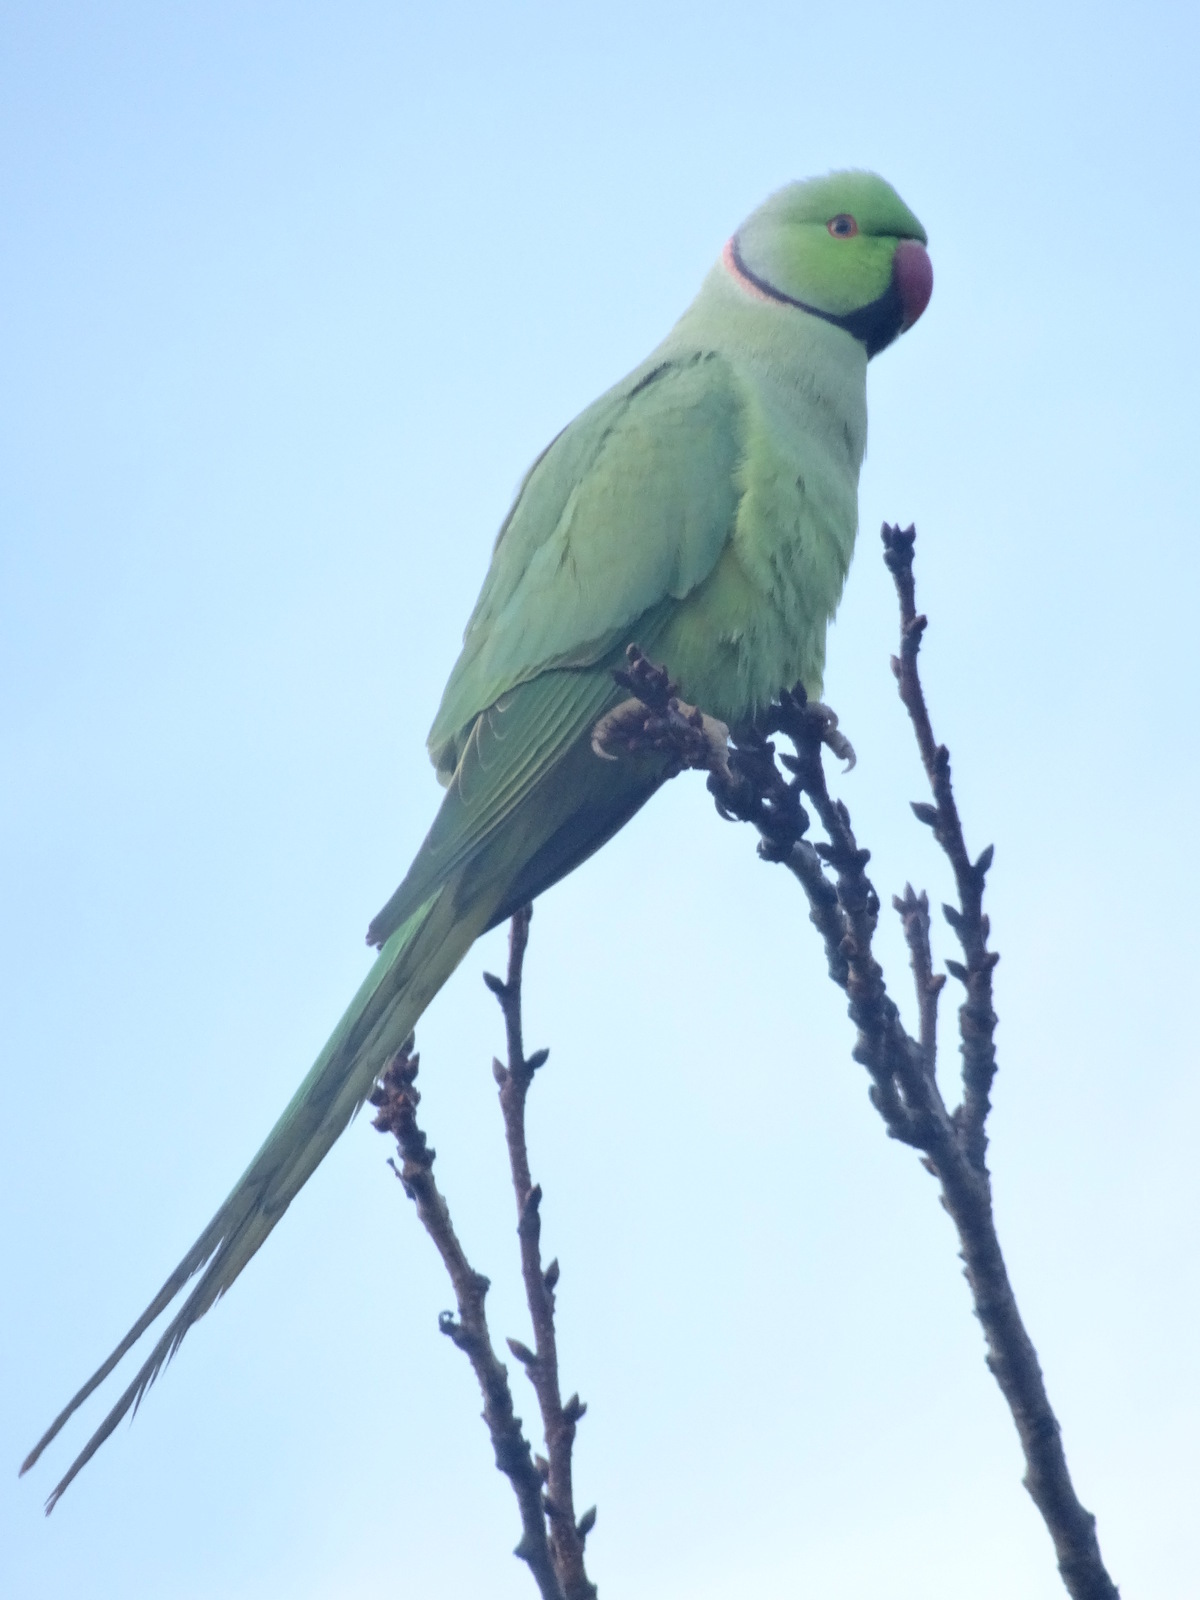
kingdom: Animalia
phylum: Chordata
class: Aves
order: Psittaciformes
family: Psittacidae
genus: Psittacula
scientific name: Psittacula krameri
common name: Rose-ringed parakeet
